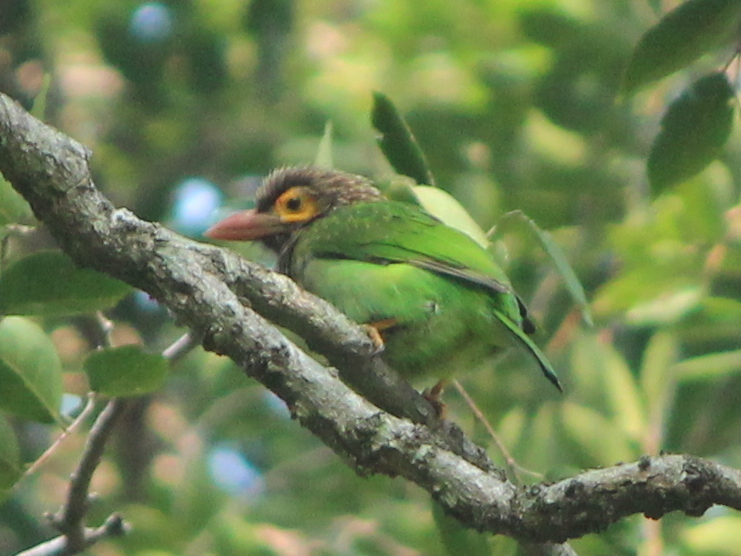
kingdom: Animalia
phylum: Chordata
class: Aves
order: Piciformes
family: Megalaimidae
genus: Psilopogon
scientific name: Psilopogon zeylanicus
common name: Brown-headed barbet
